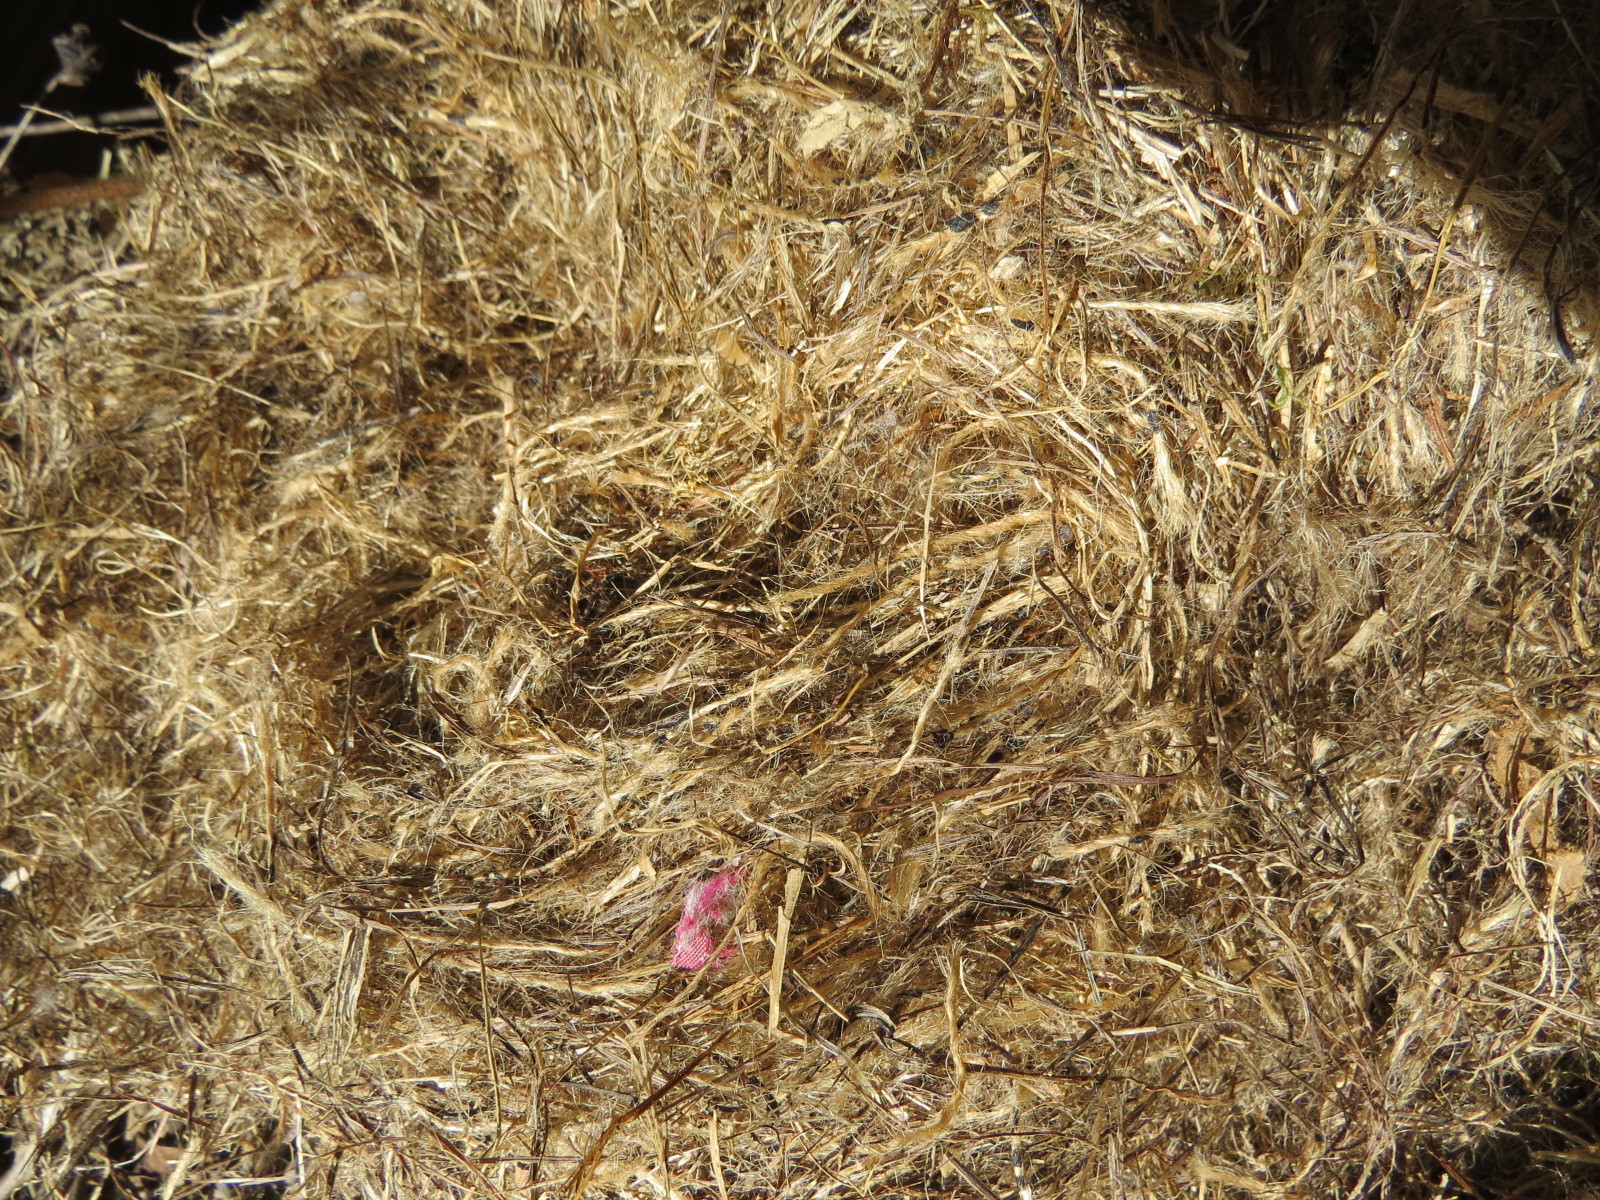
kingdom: Animalia
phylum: Chordata
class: Mammalia
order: Rodentia
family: Cricetidae
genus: Neotoma
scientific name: Neotoma fuscipes
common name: Dusky-footed woodrat
